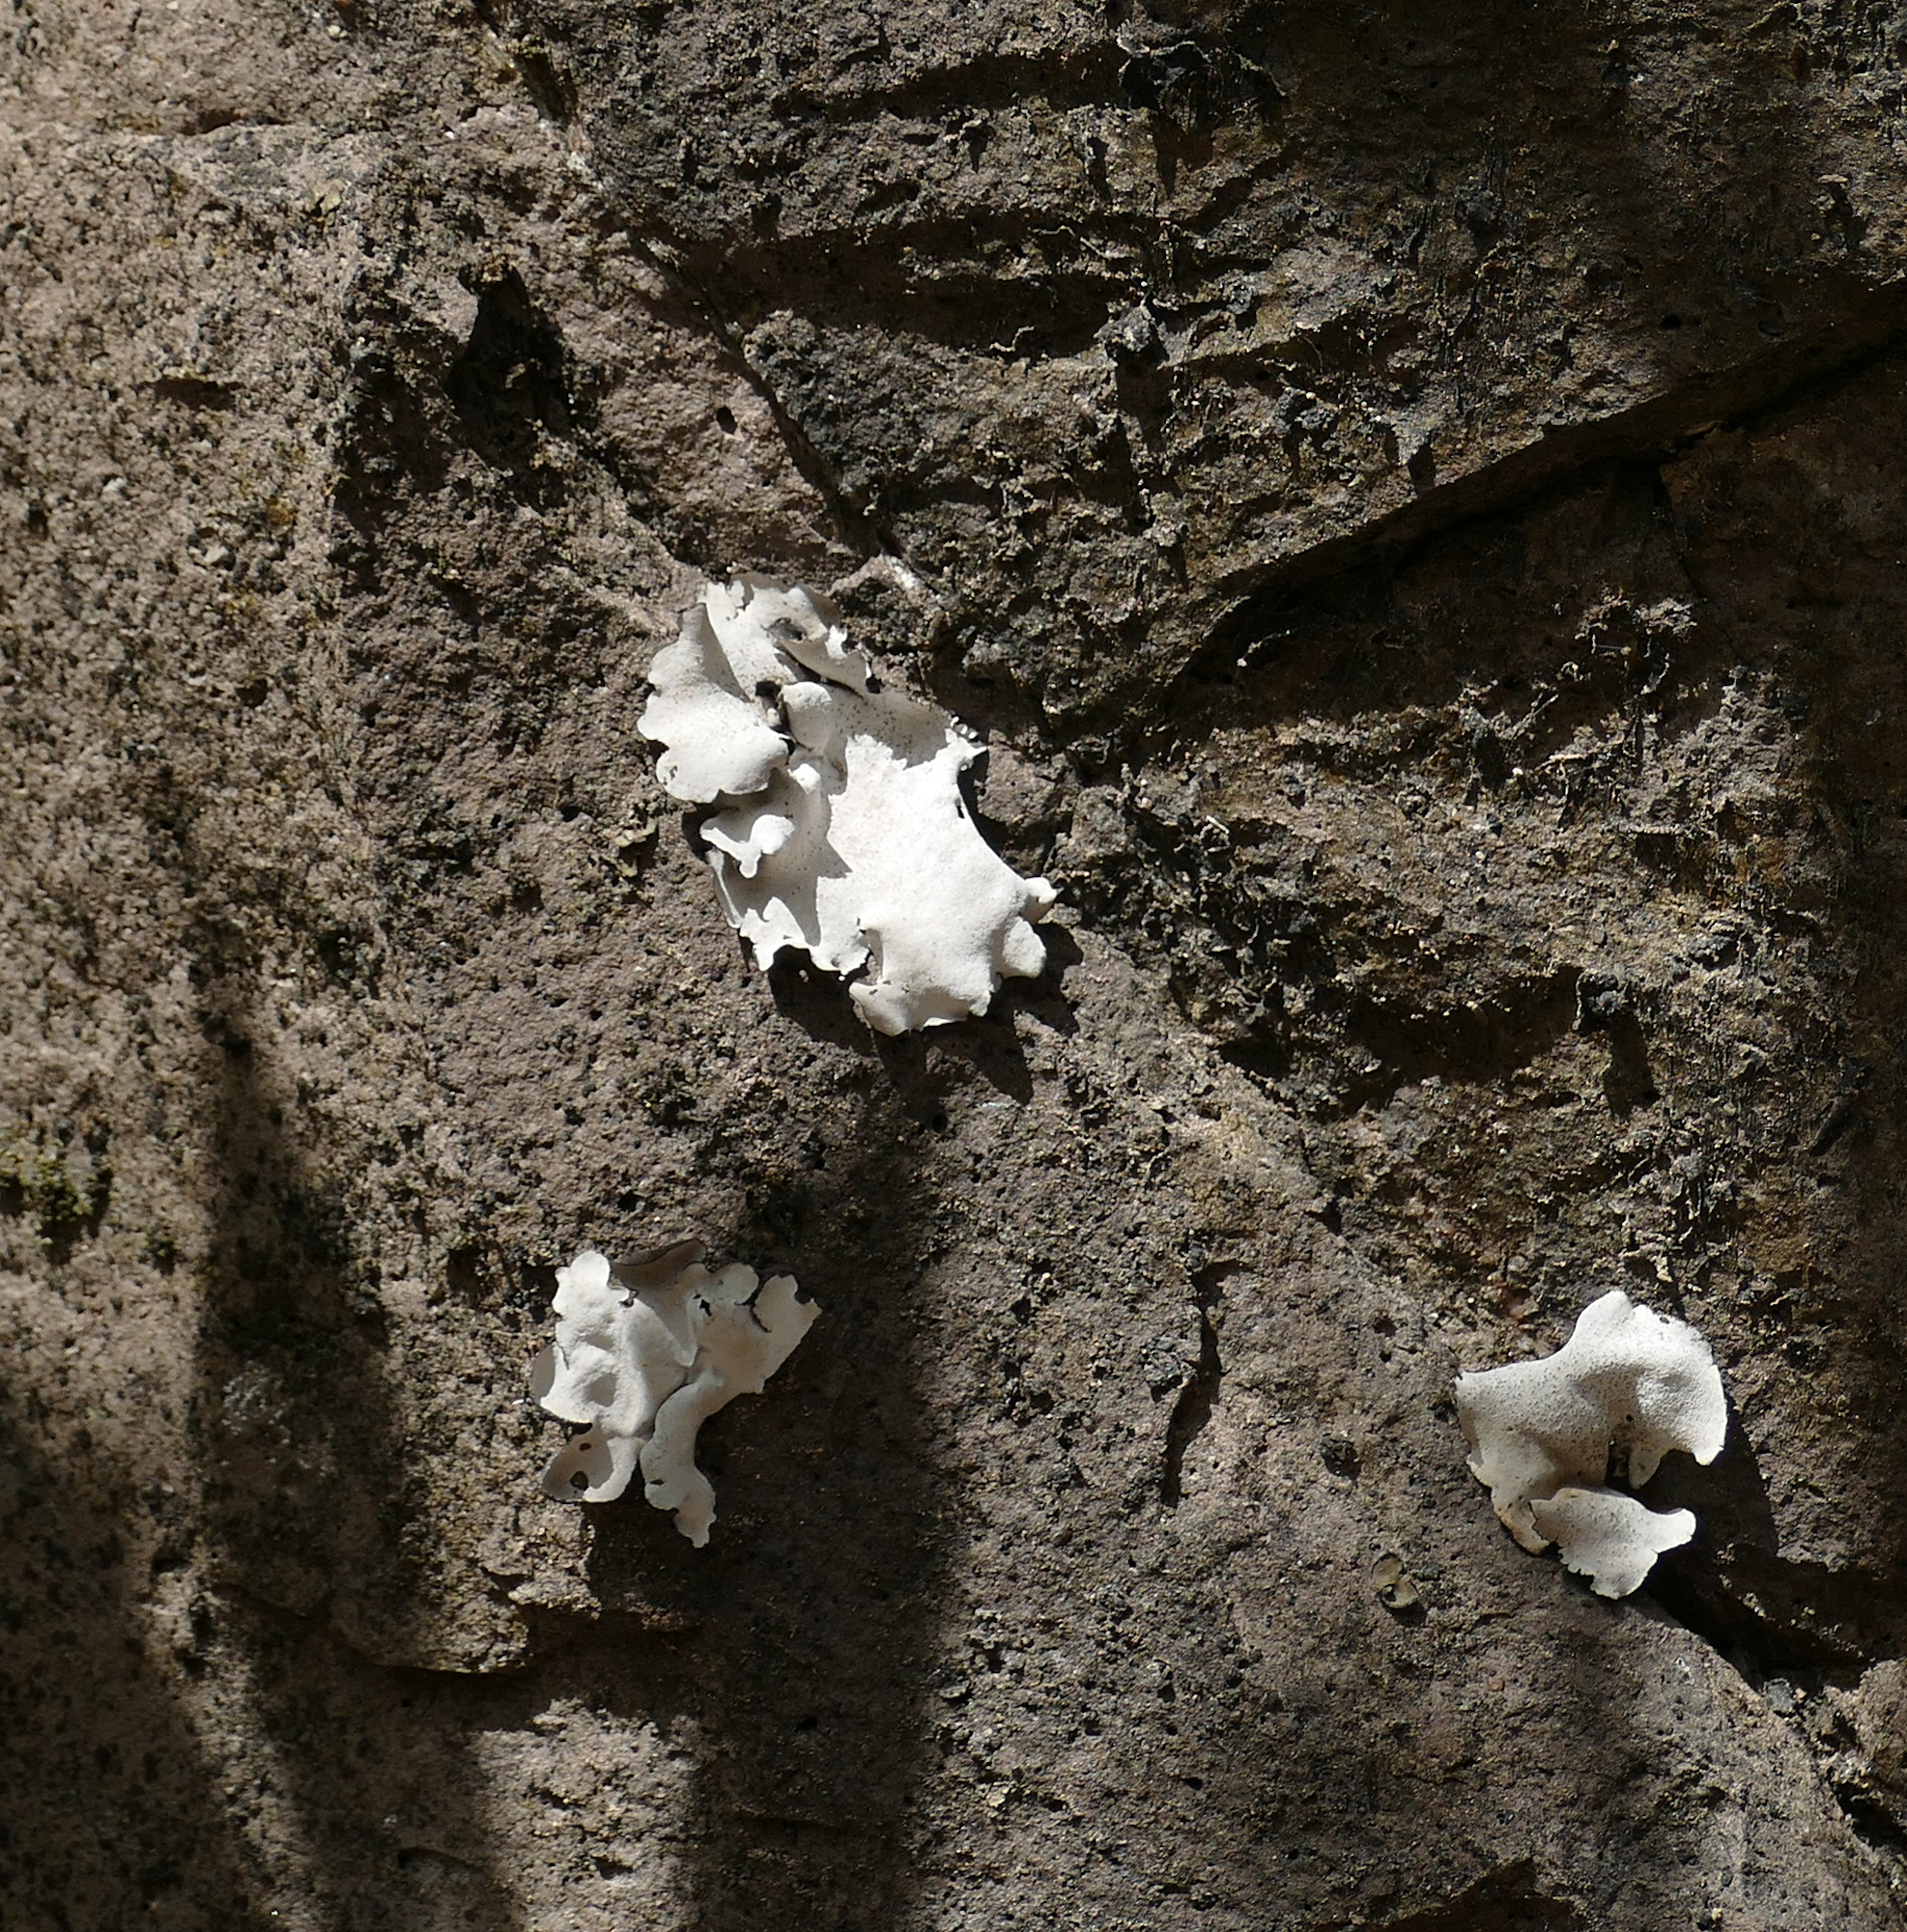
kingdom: Fungi
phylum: Ascomycota
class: Eurotiomycetes
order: Verrucariales
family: Verrucariaceae
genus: Dermatocarpon
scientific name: Dermatocarpon miniatum
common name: Leather lichen
